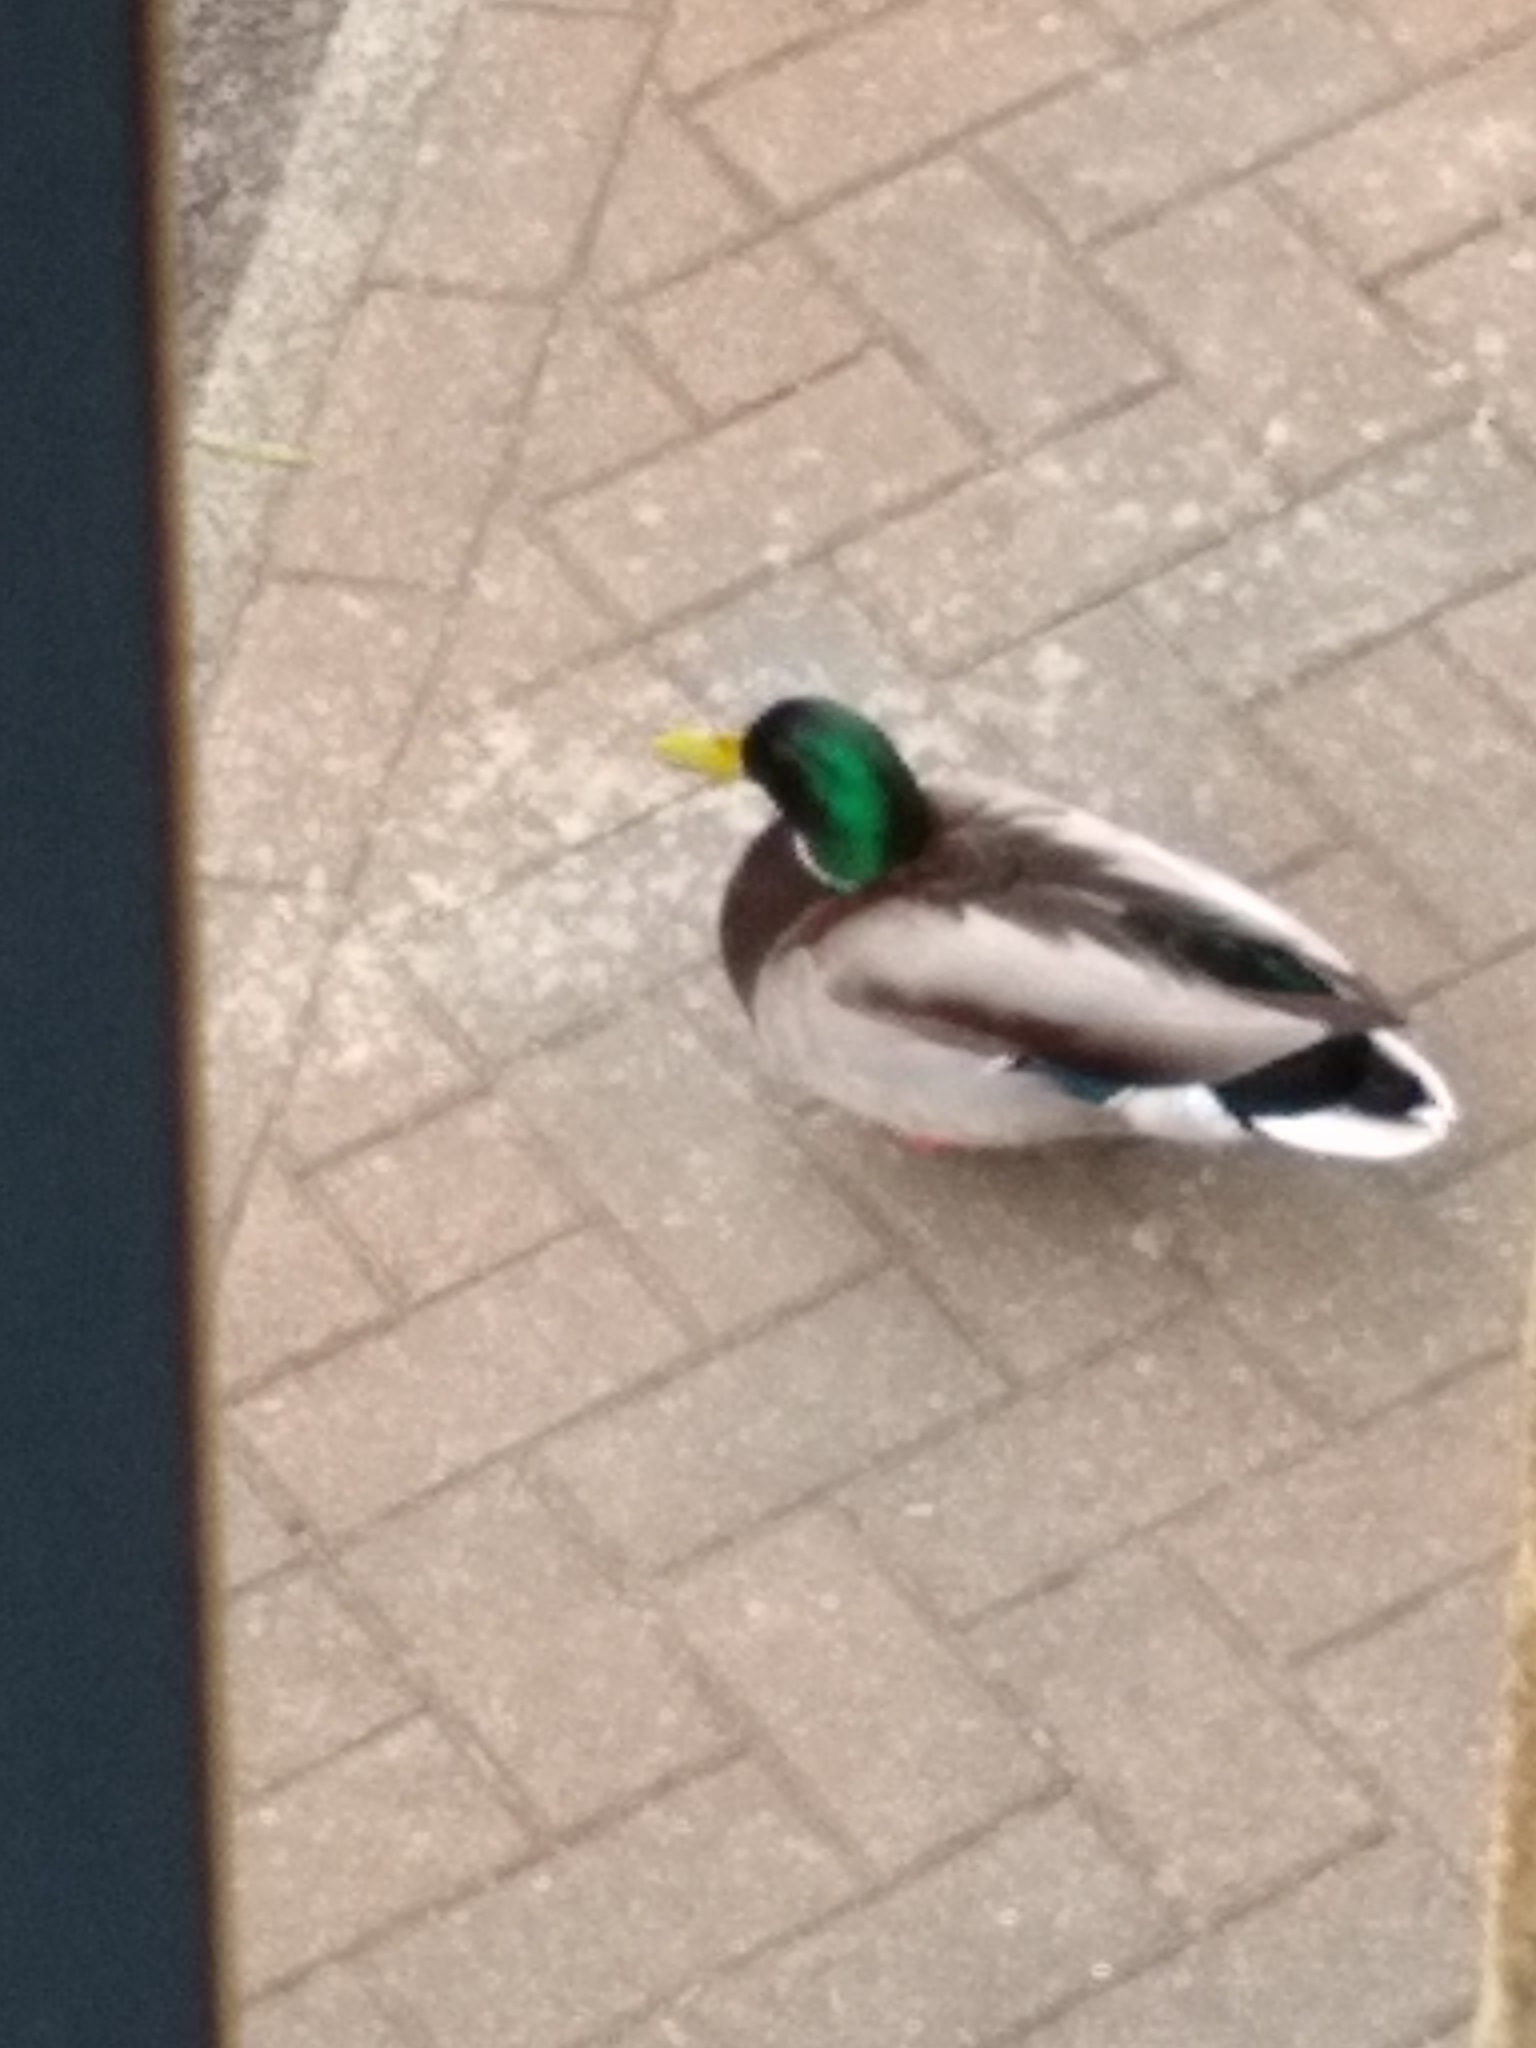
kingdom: Animalia
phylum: Chordata
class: Aves
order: Anseriformes
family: Anatidae
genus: Anas
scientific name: Anas platyrhynchos
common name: Mallard
